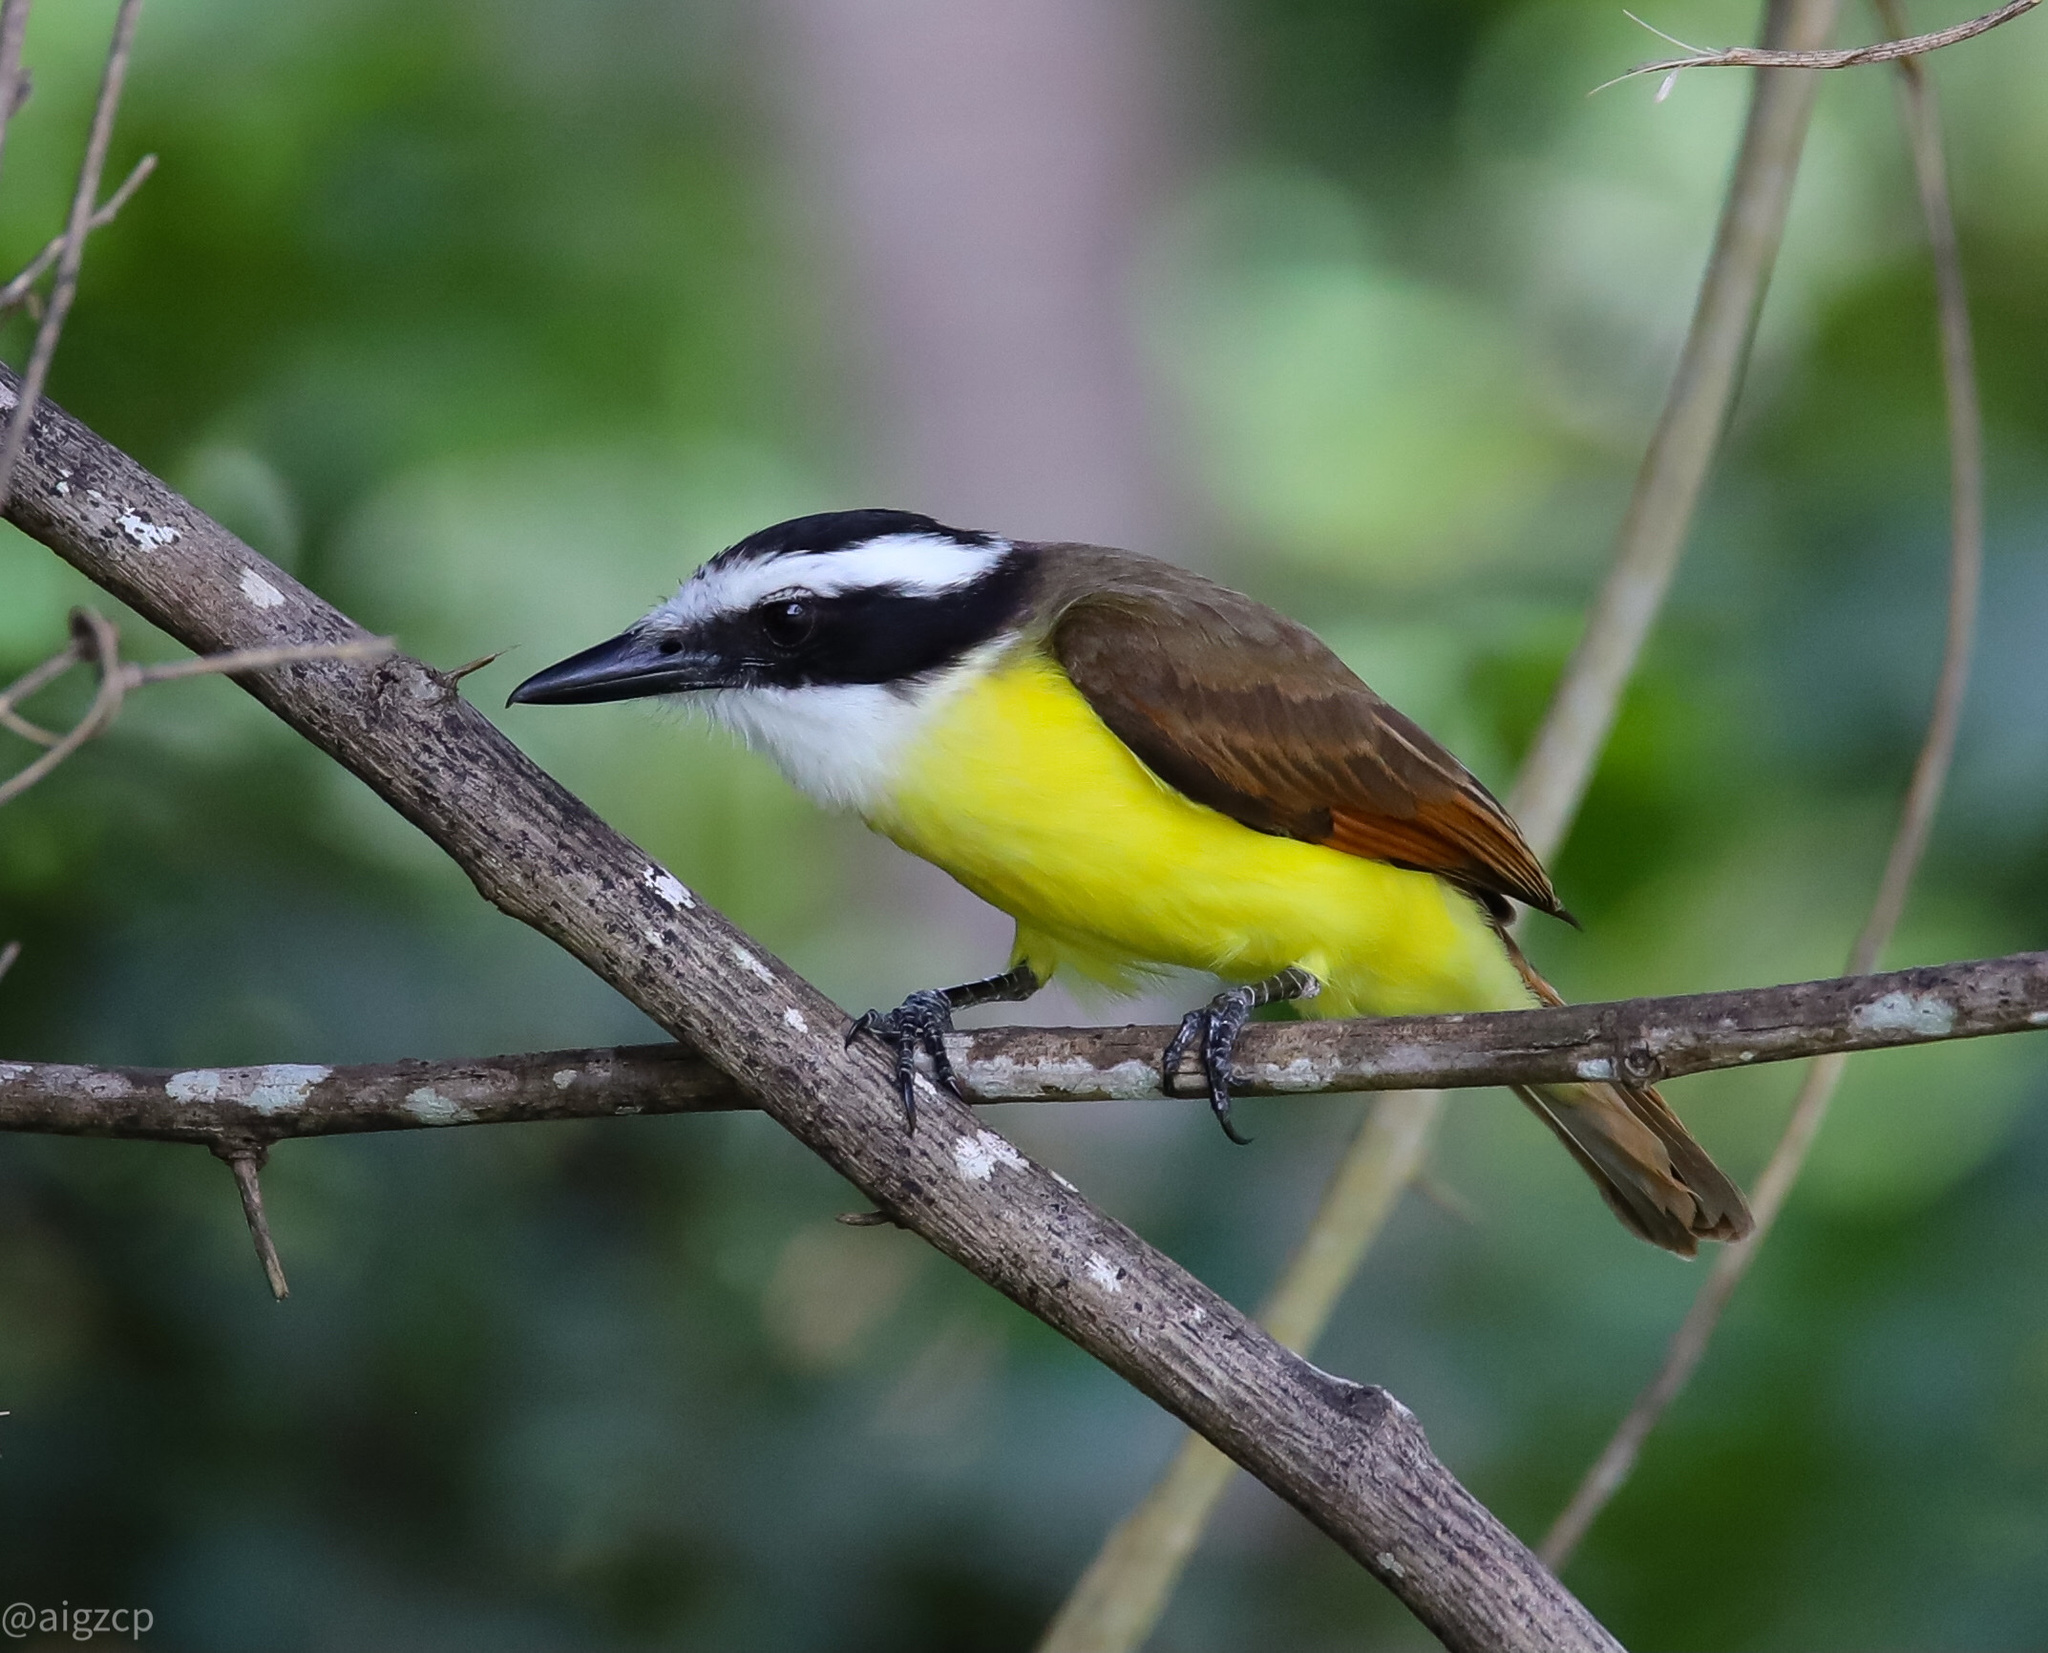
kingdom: Animalia
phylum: Chordata
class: Aves
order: Passeriformes
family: Tyrannidae
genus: Pitangus
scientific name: Pitangus sulphuratus
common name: Great kiskadee
